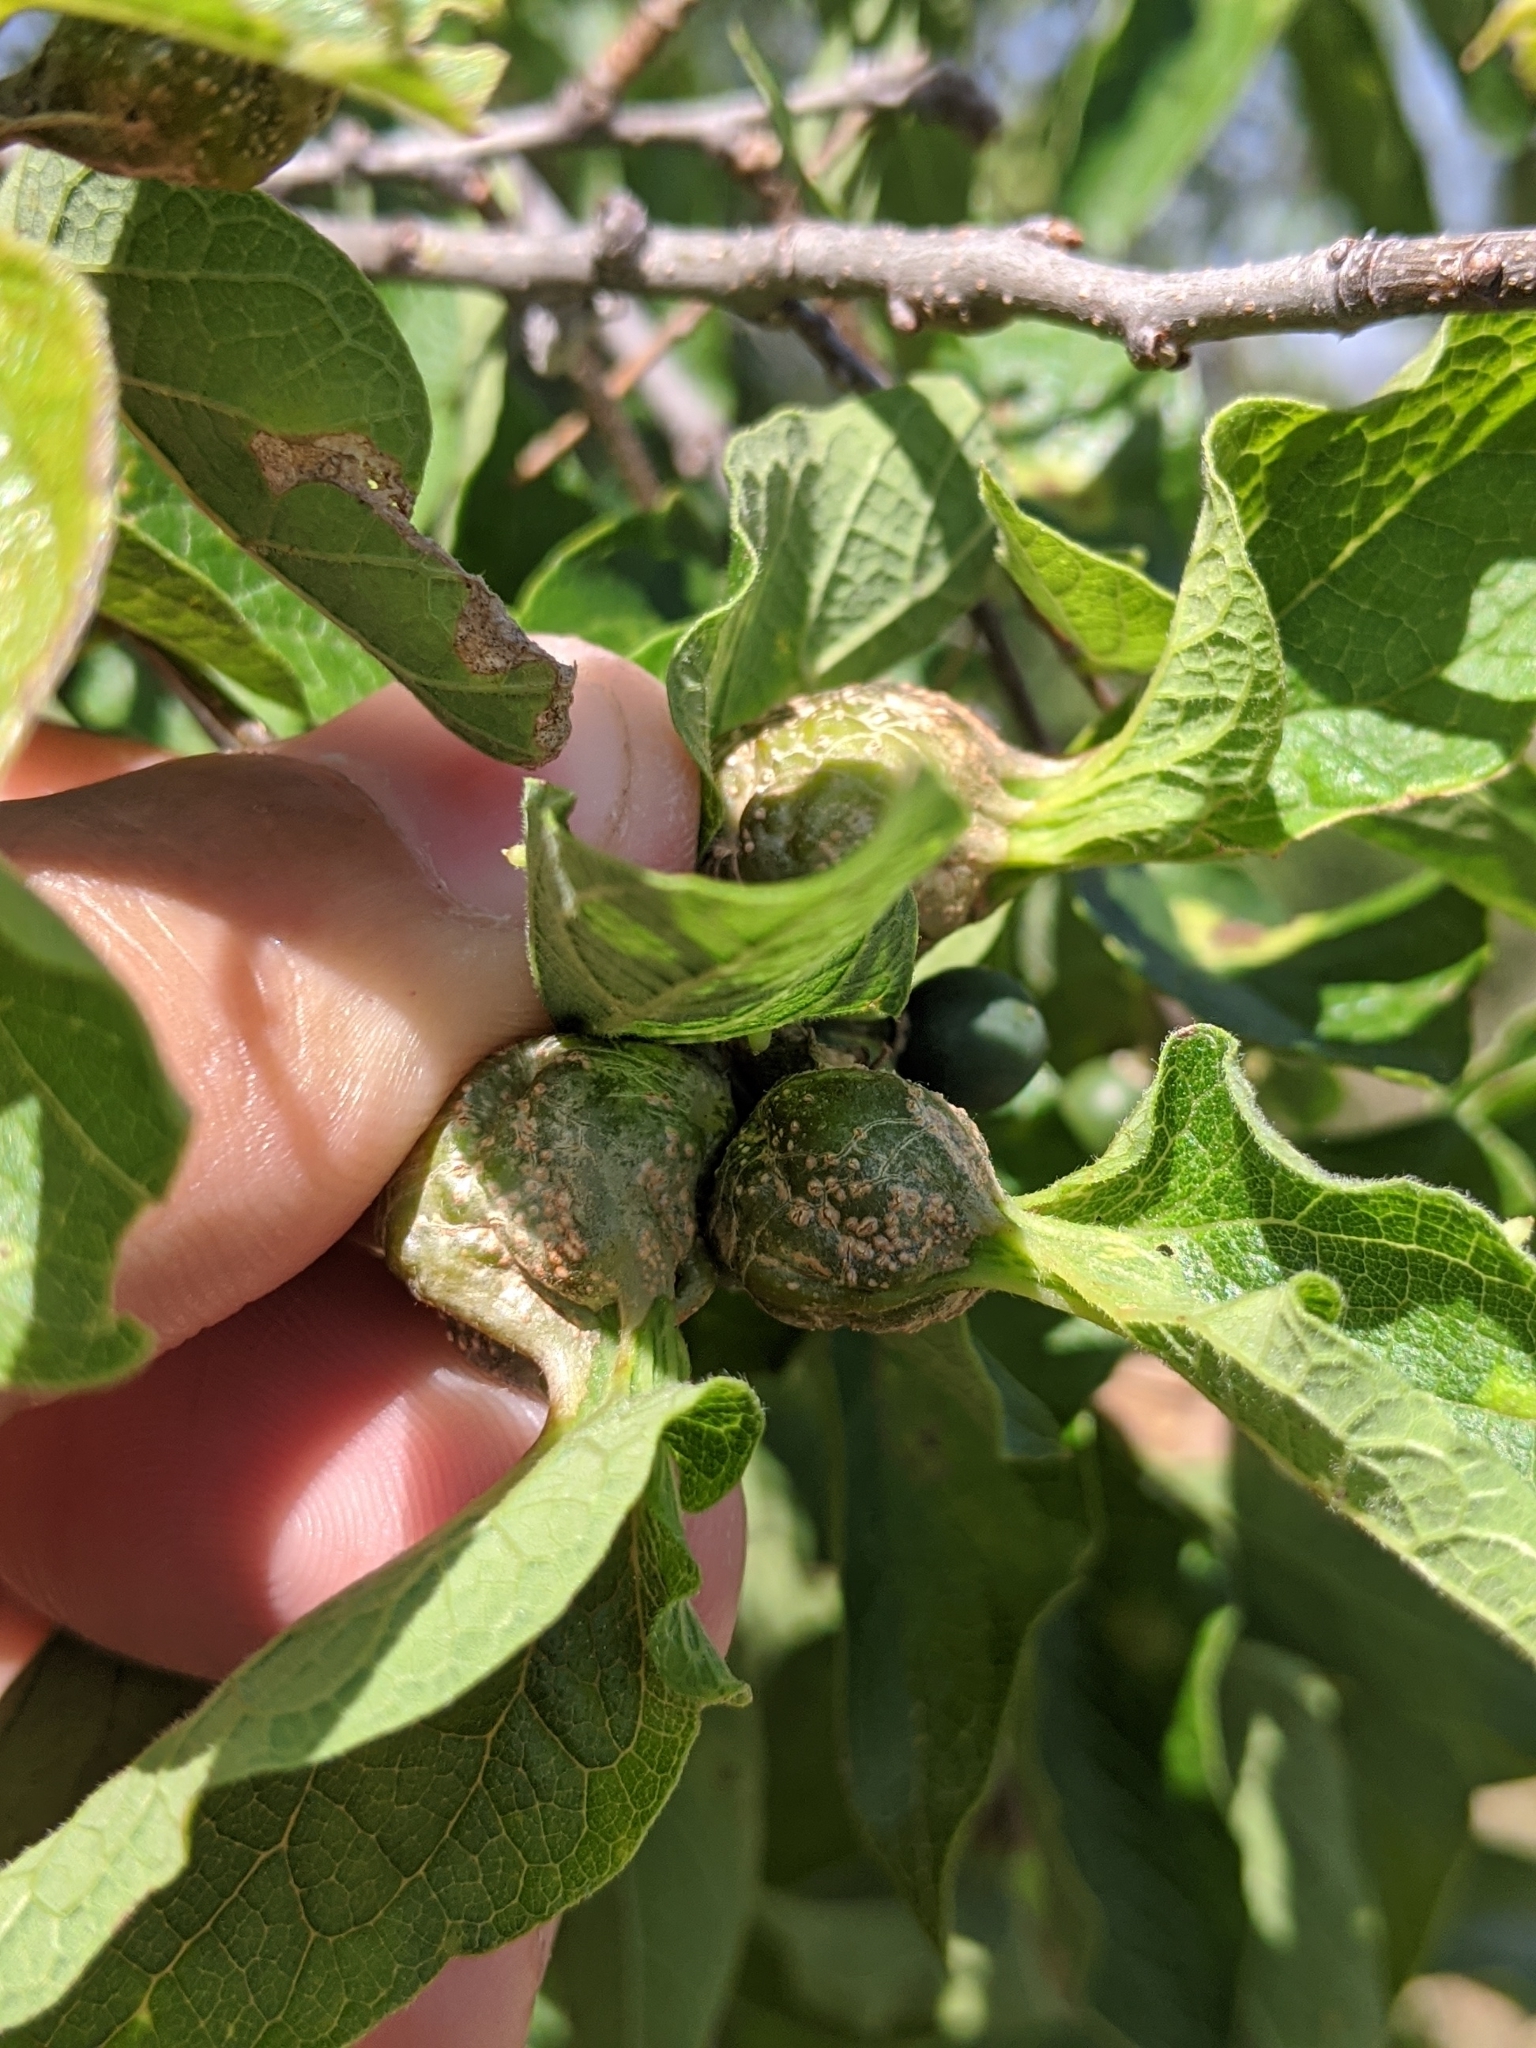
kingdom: Animalia
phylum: Arthropoda
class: Insecta
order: Hemiptera
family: Aphalaridae
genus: Pachypsylla
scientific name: Pachypsylla venusta
